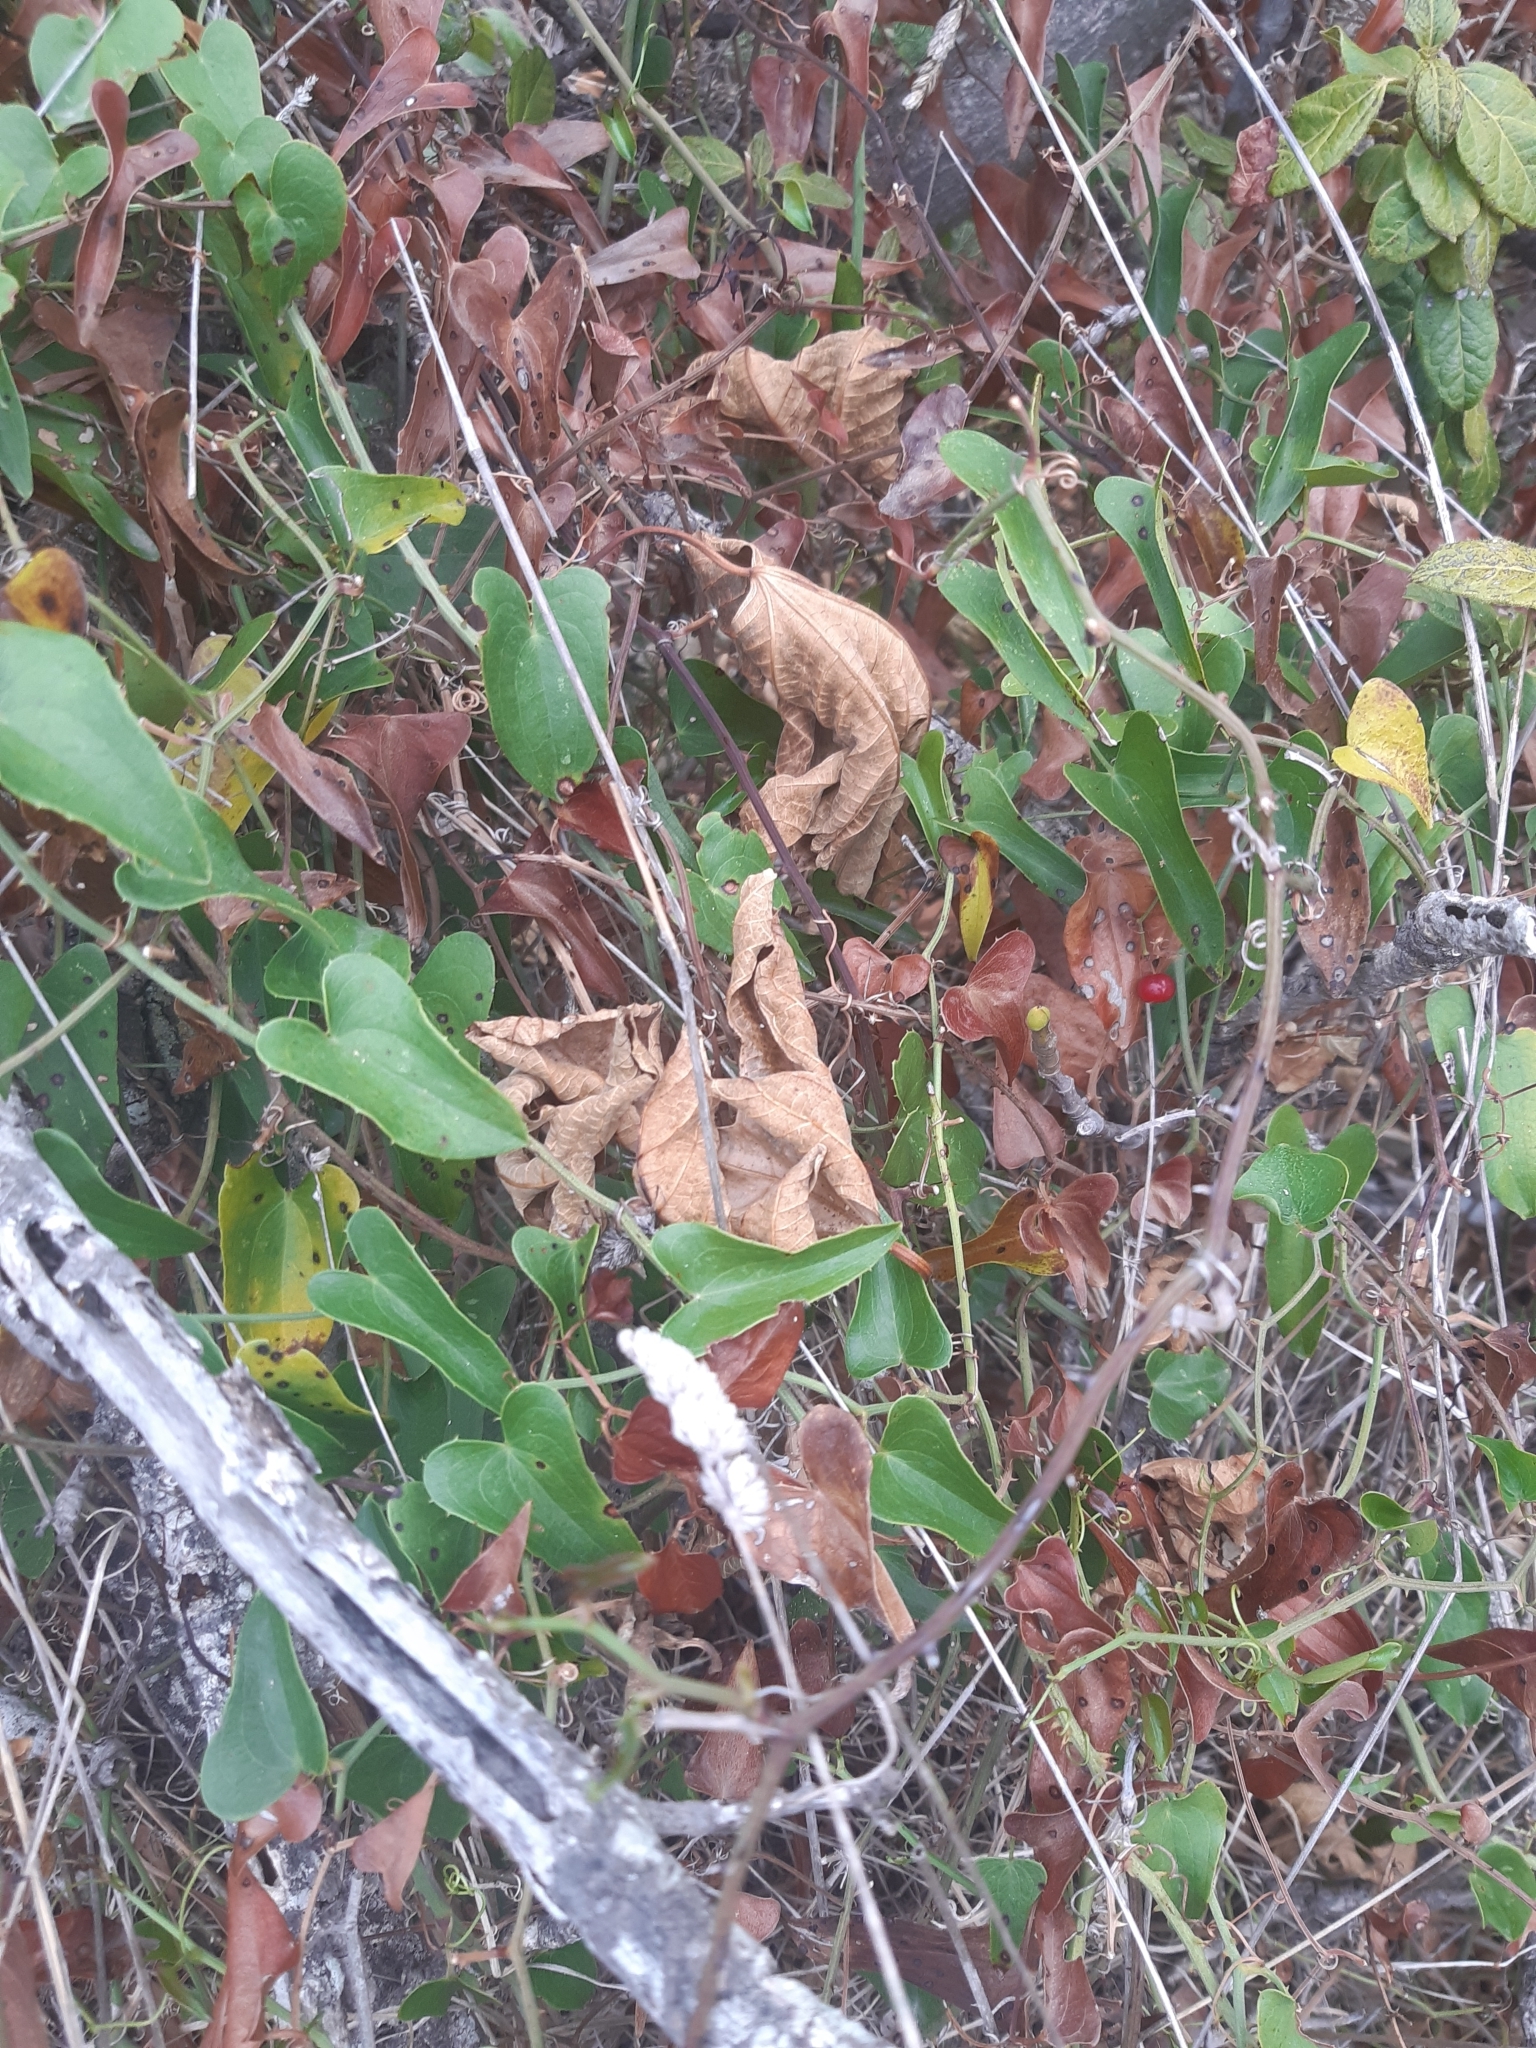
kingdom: Plantae
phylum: Tracheophyta
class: Liliopsida
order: Liliales
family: Smilacaceae
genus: Smilax
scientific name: Smilax aspera
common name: Common smilax
